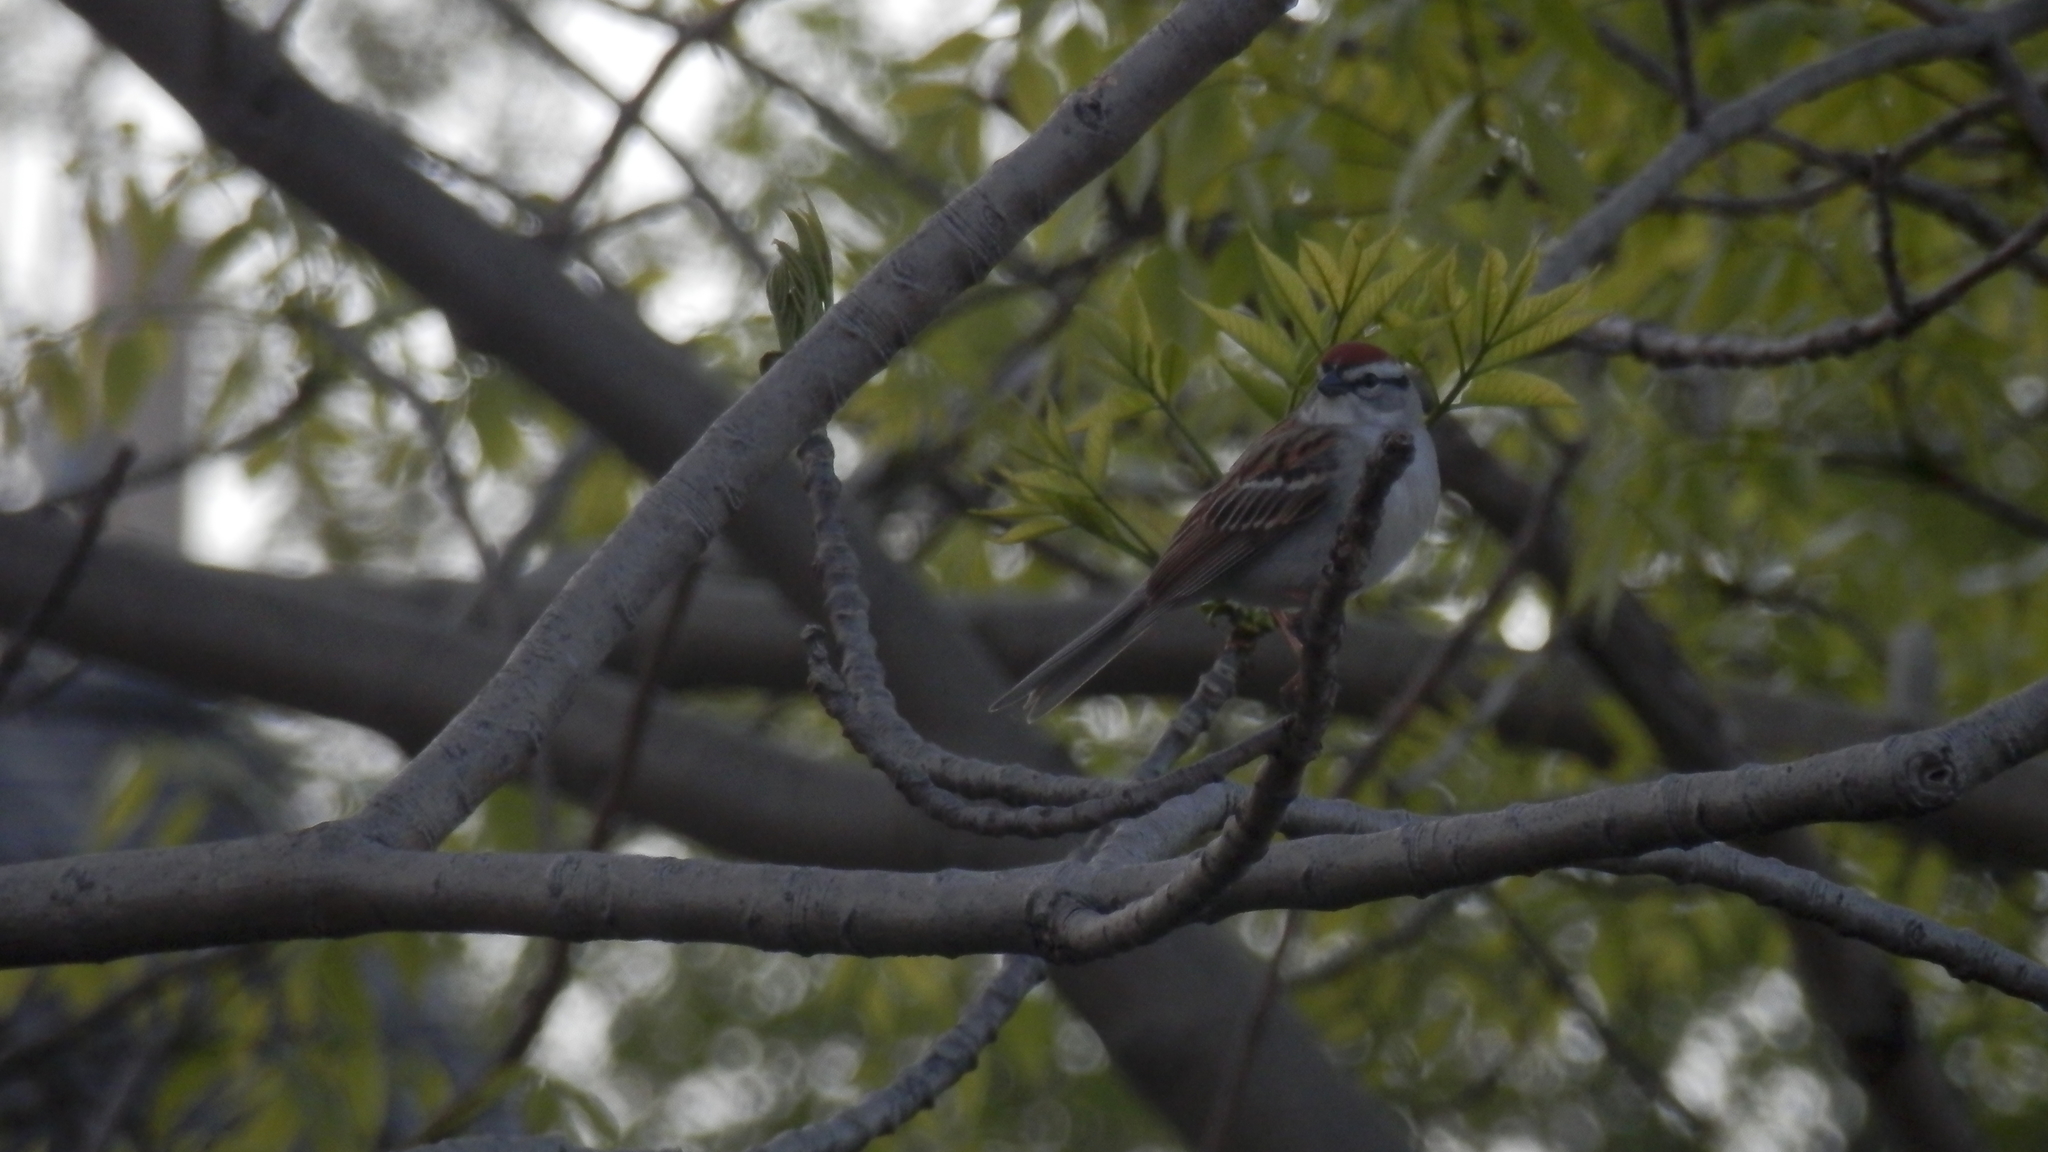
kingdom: Animalia
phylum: Chordata
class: Aves
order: Passeriformes
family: Passerellidae
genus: Spizella
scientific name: Spizella passerina
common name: Chipping sparrow
